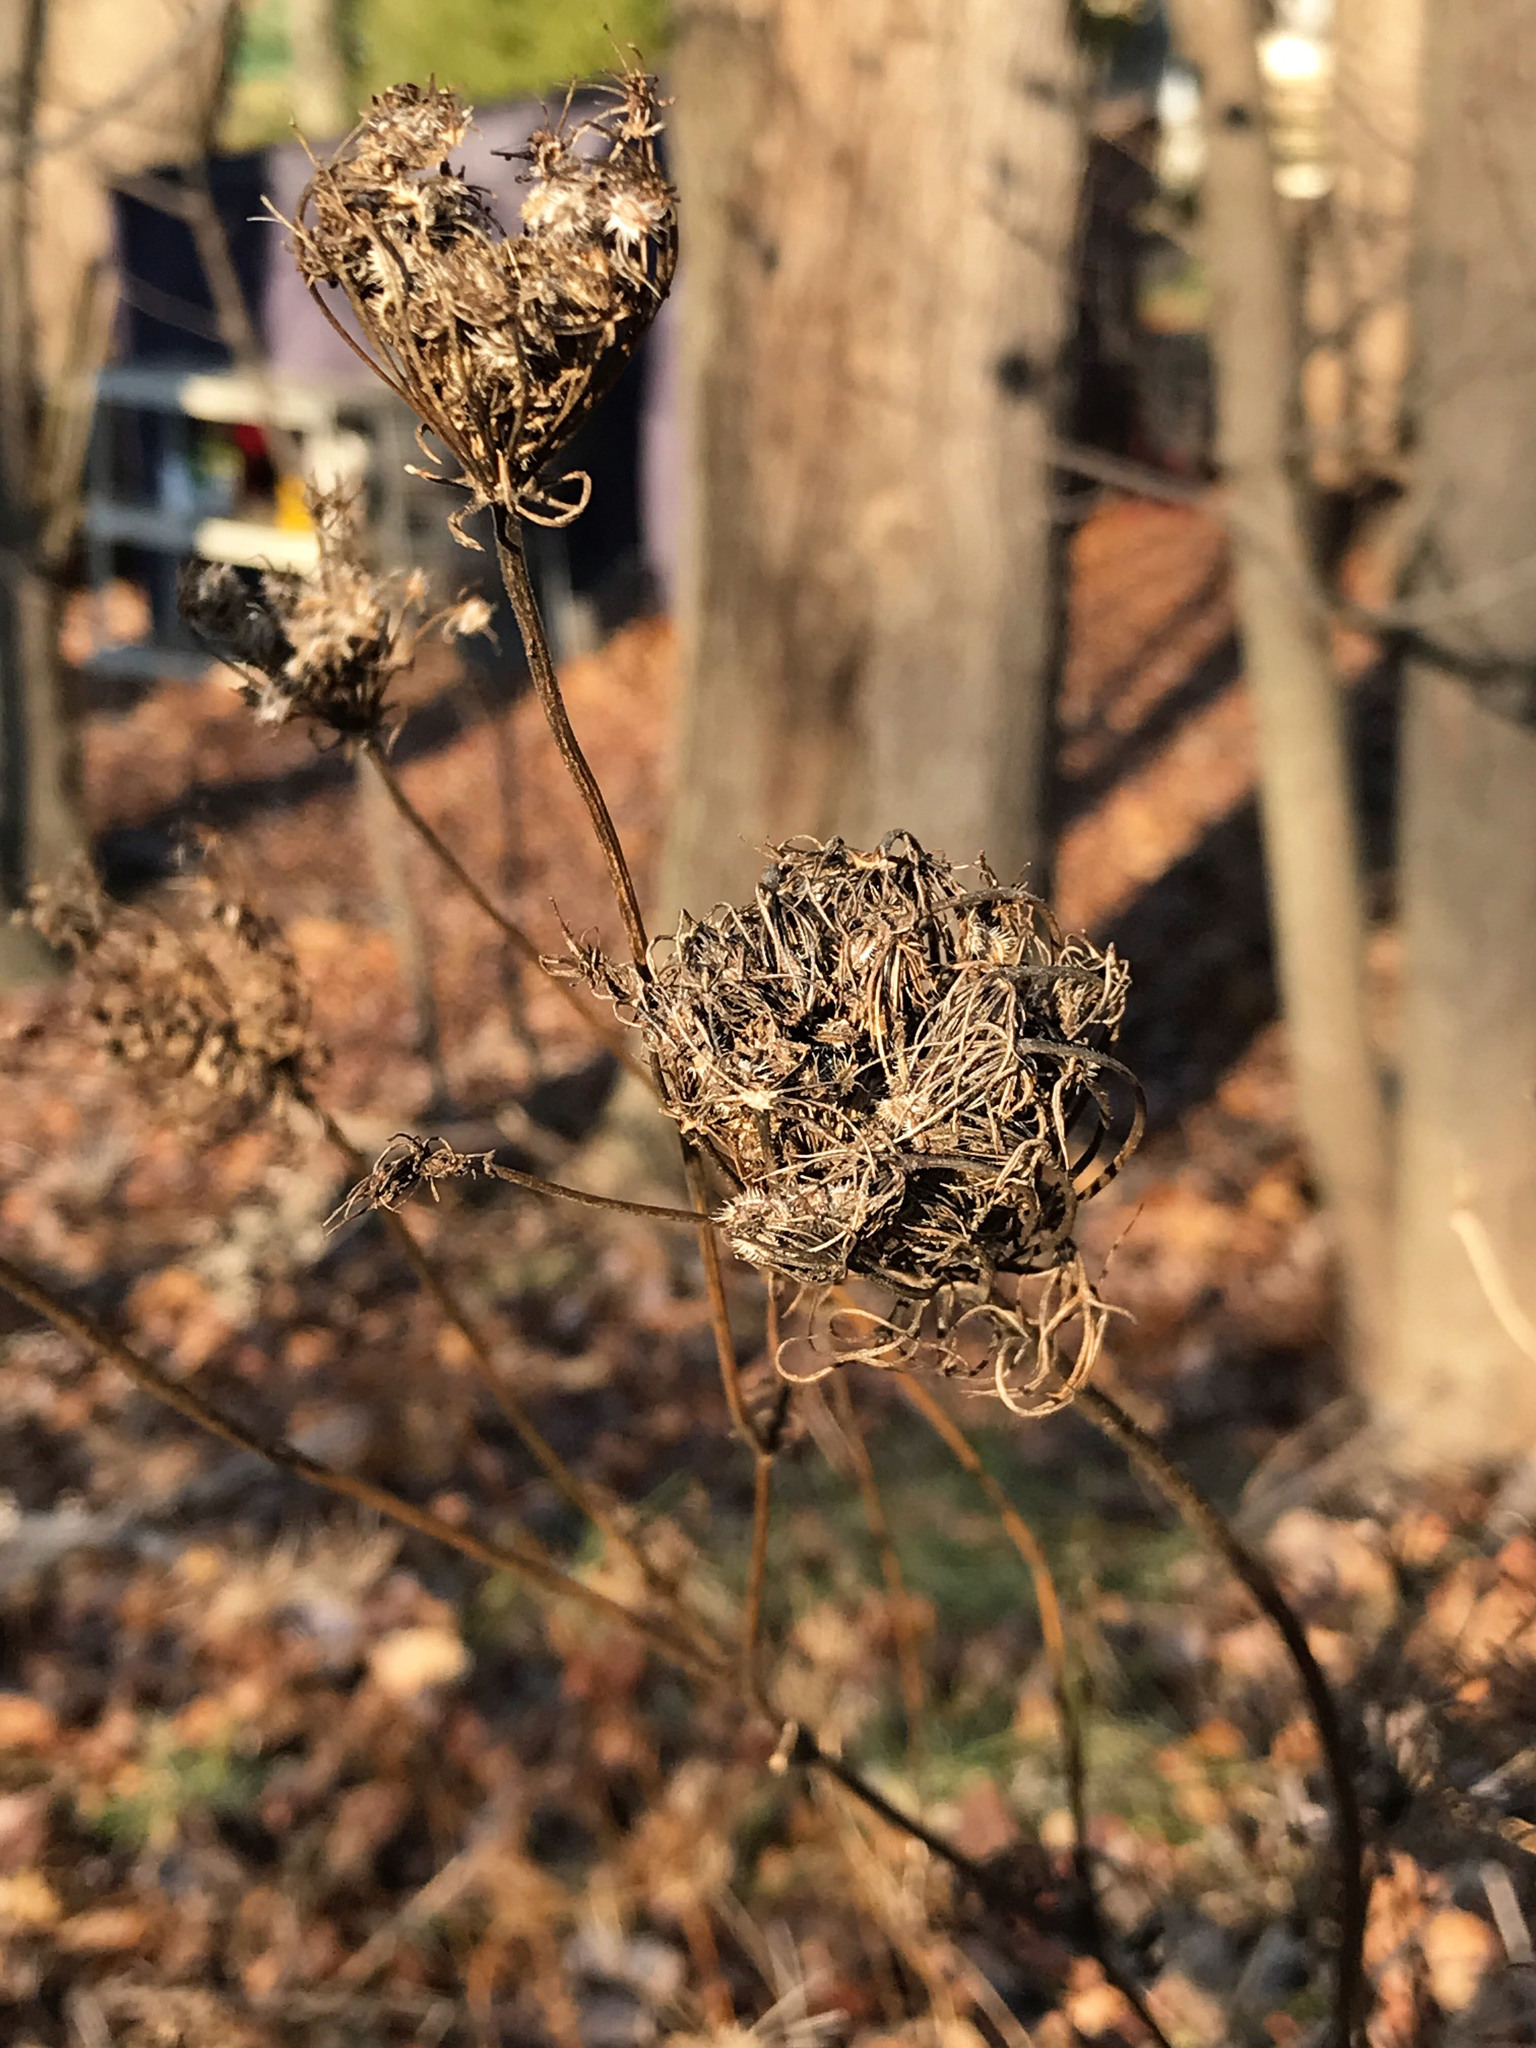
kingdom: Plantae
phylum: Tracheophyta
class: Magnoliopsida
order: Apiales
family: Apiaceae
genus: Daucus
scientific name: Daucus carota
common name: Wild carrot
